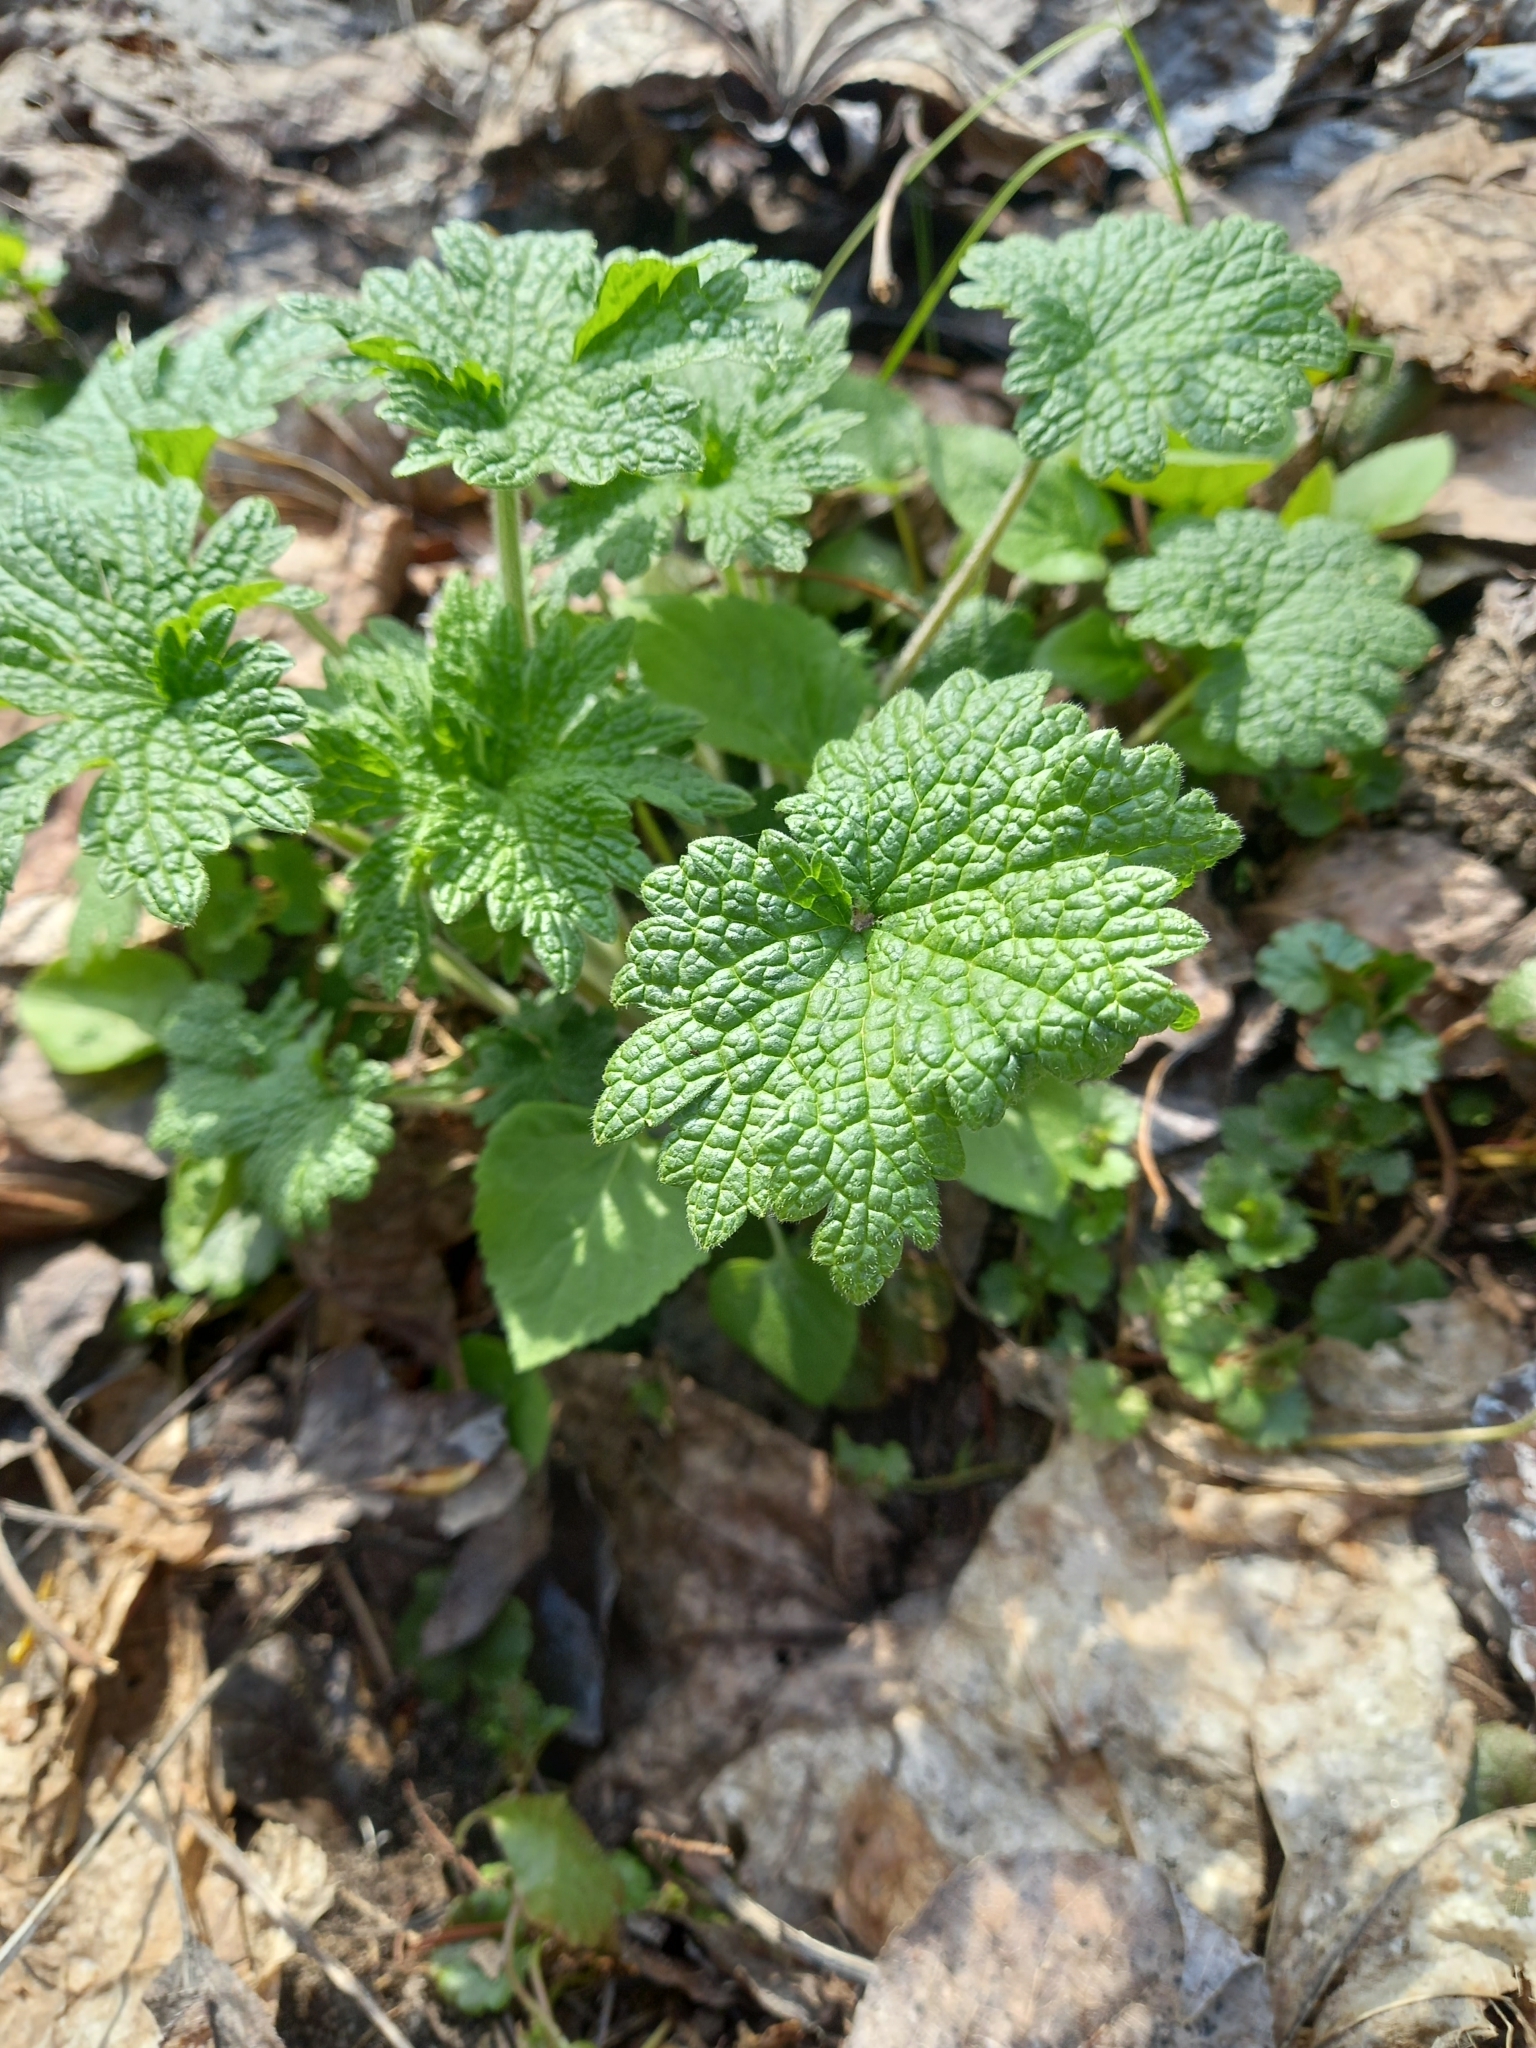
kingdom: Plantae
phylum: Tracheophyta
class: Magnoliopsida
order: Lamiales
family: Lamiaceae
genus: Leonurus
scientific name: Leonurus quinquelobatus
